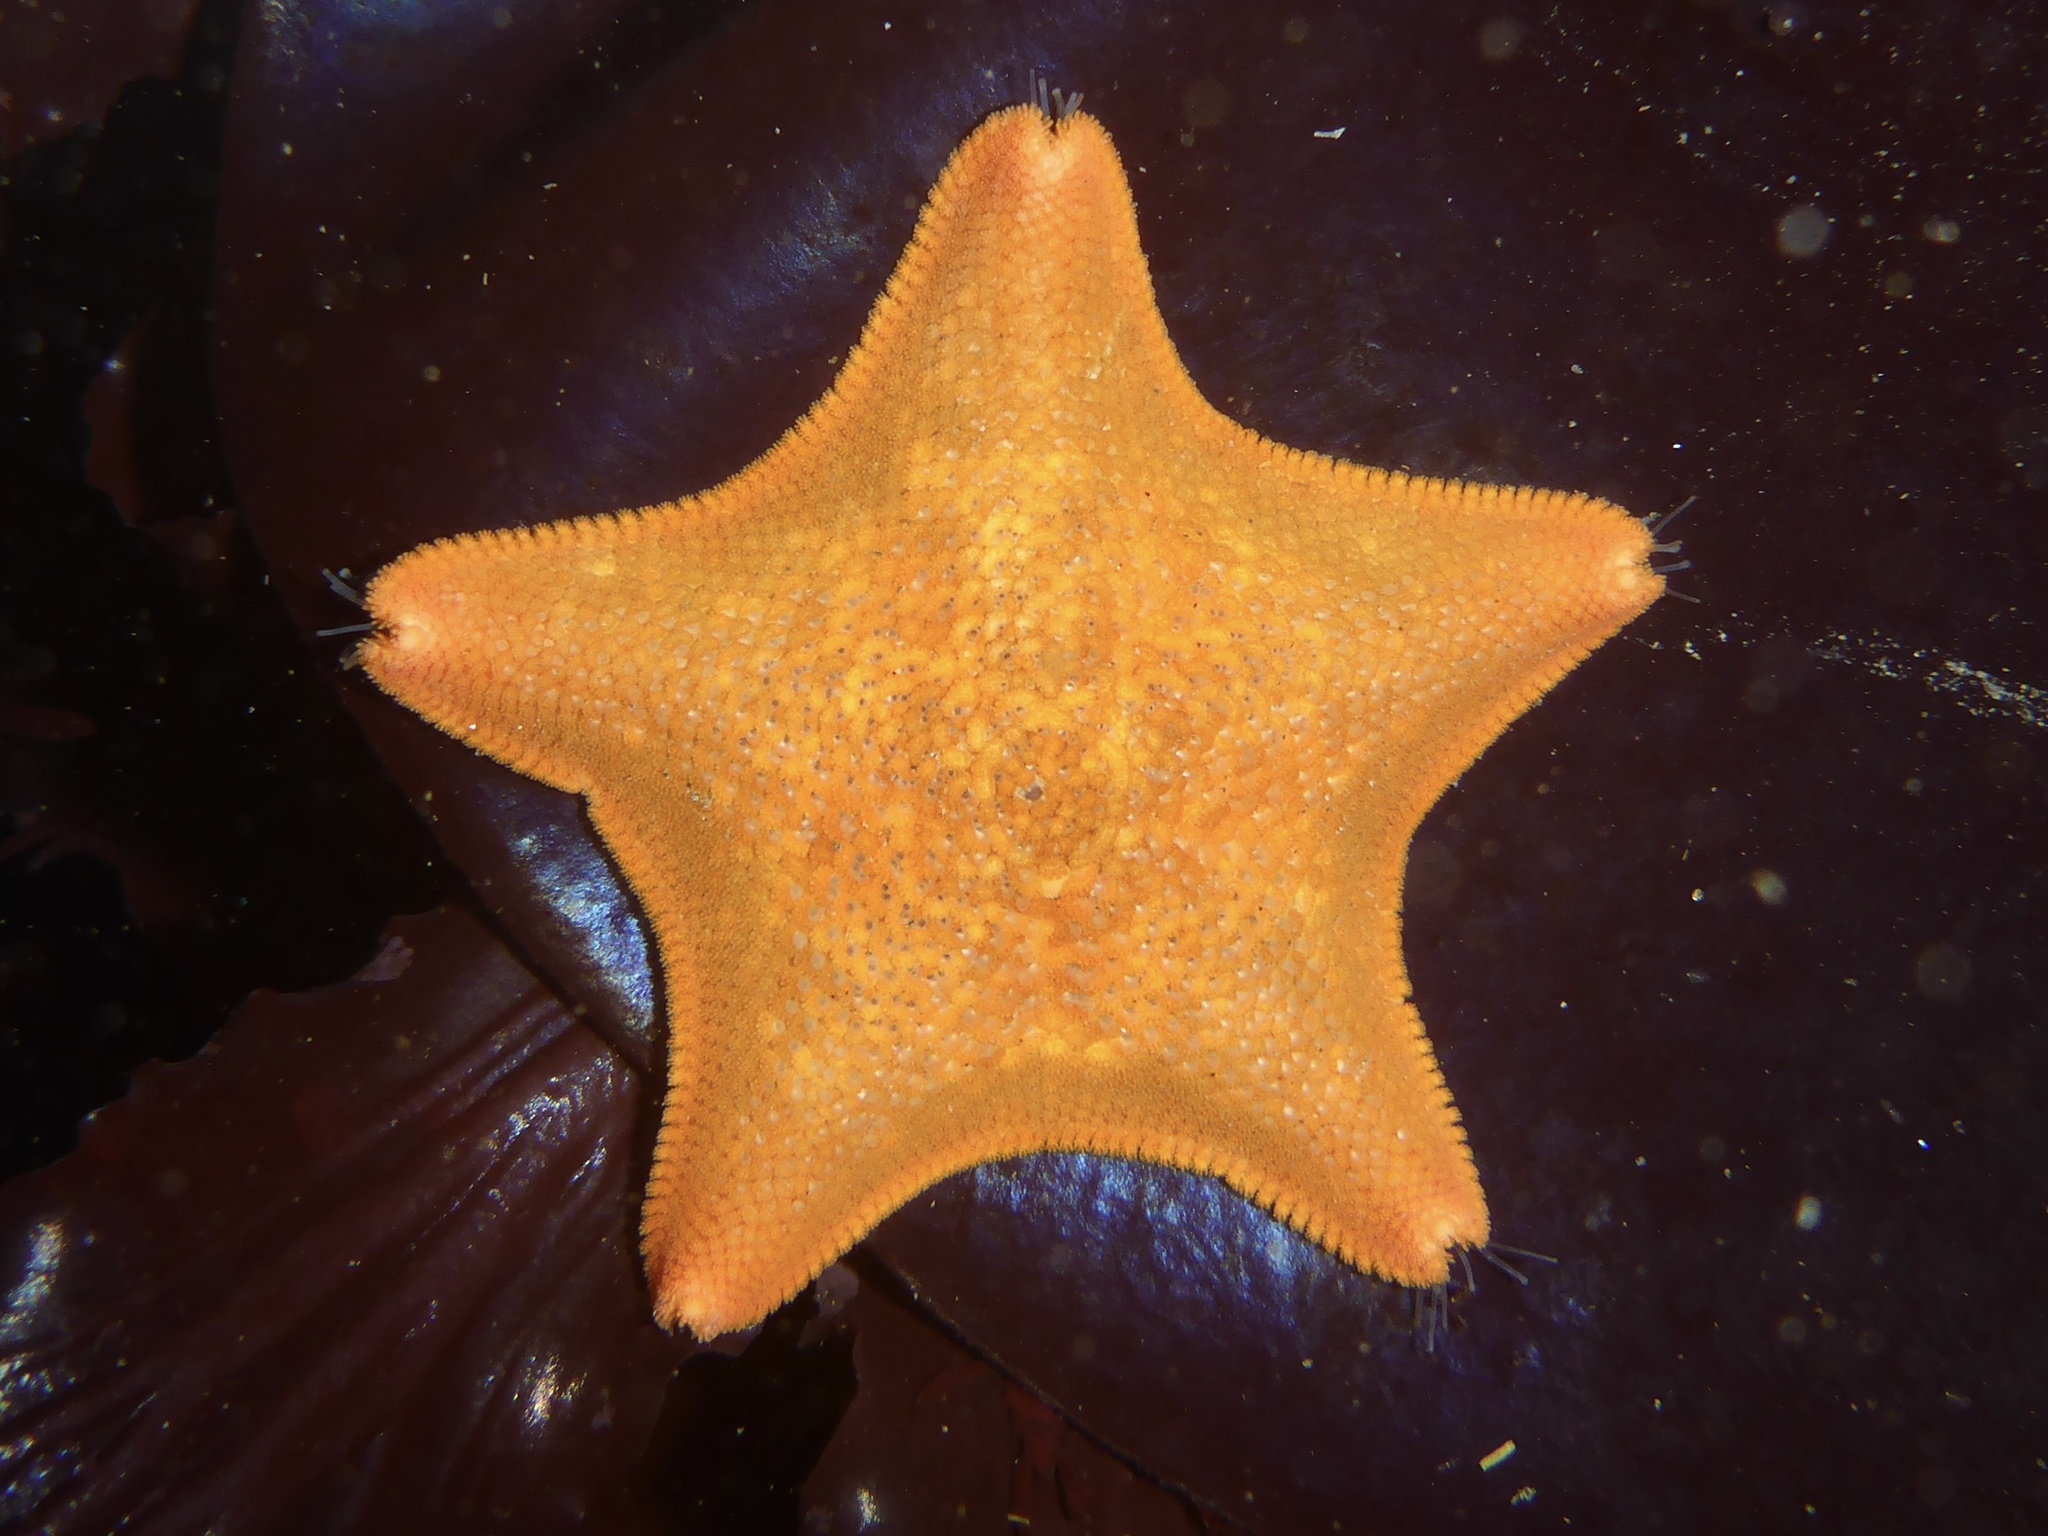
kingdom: Animalia
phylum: Echinodermata
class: Asteroidea
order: Valvatida
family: Asterinidae
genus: Patiria
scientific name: Patiria miniata
